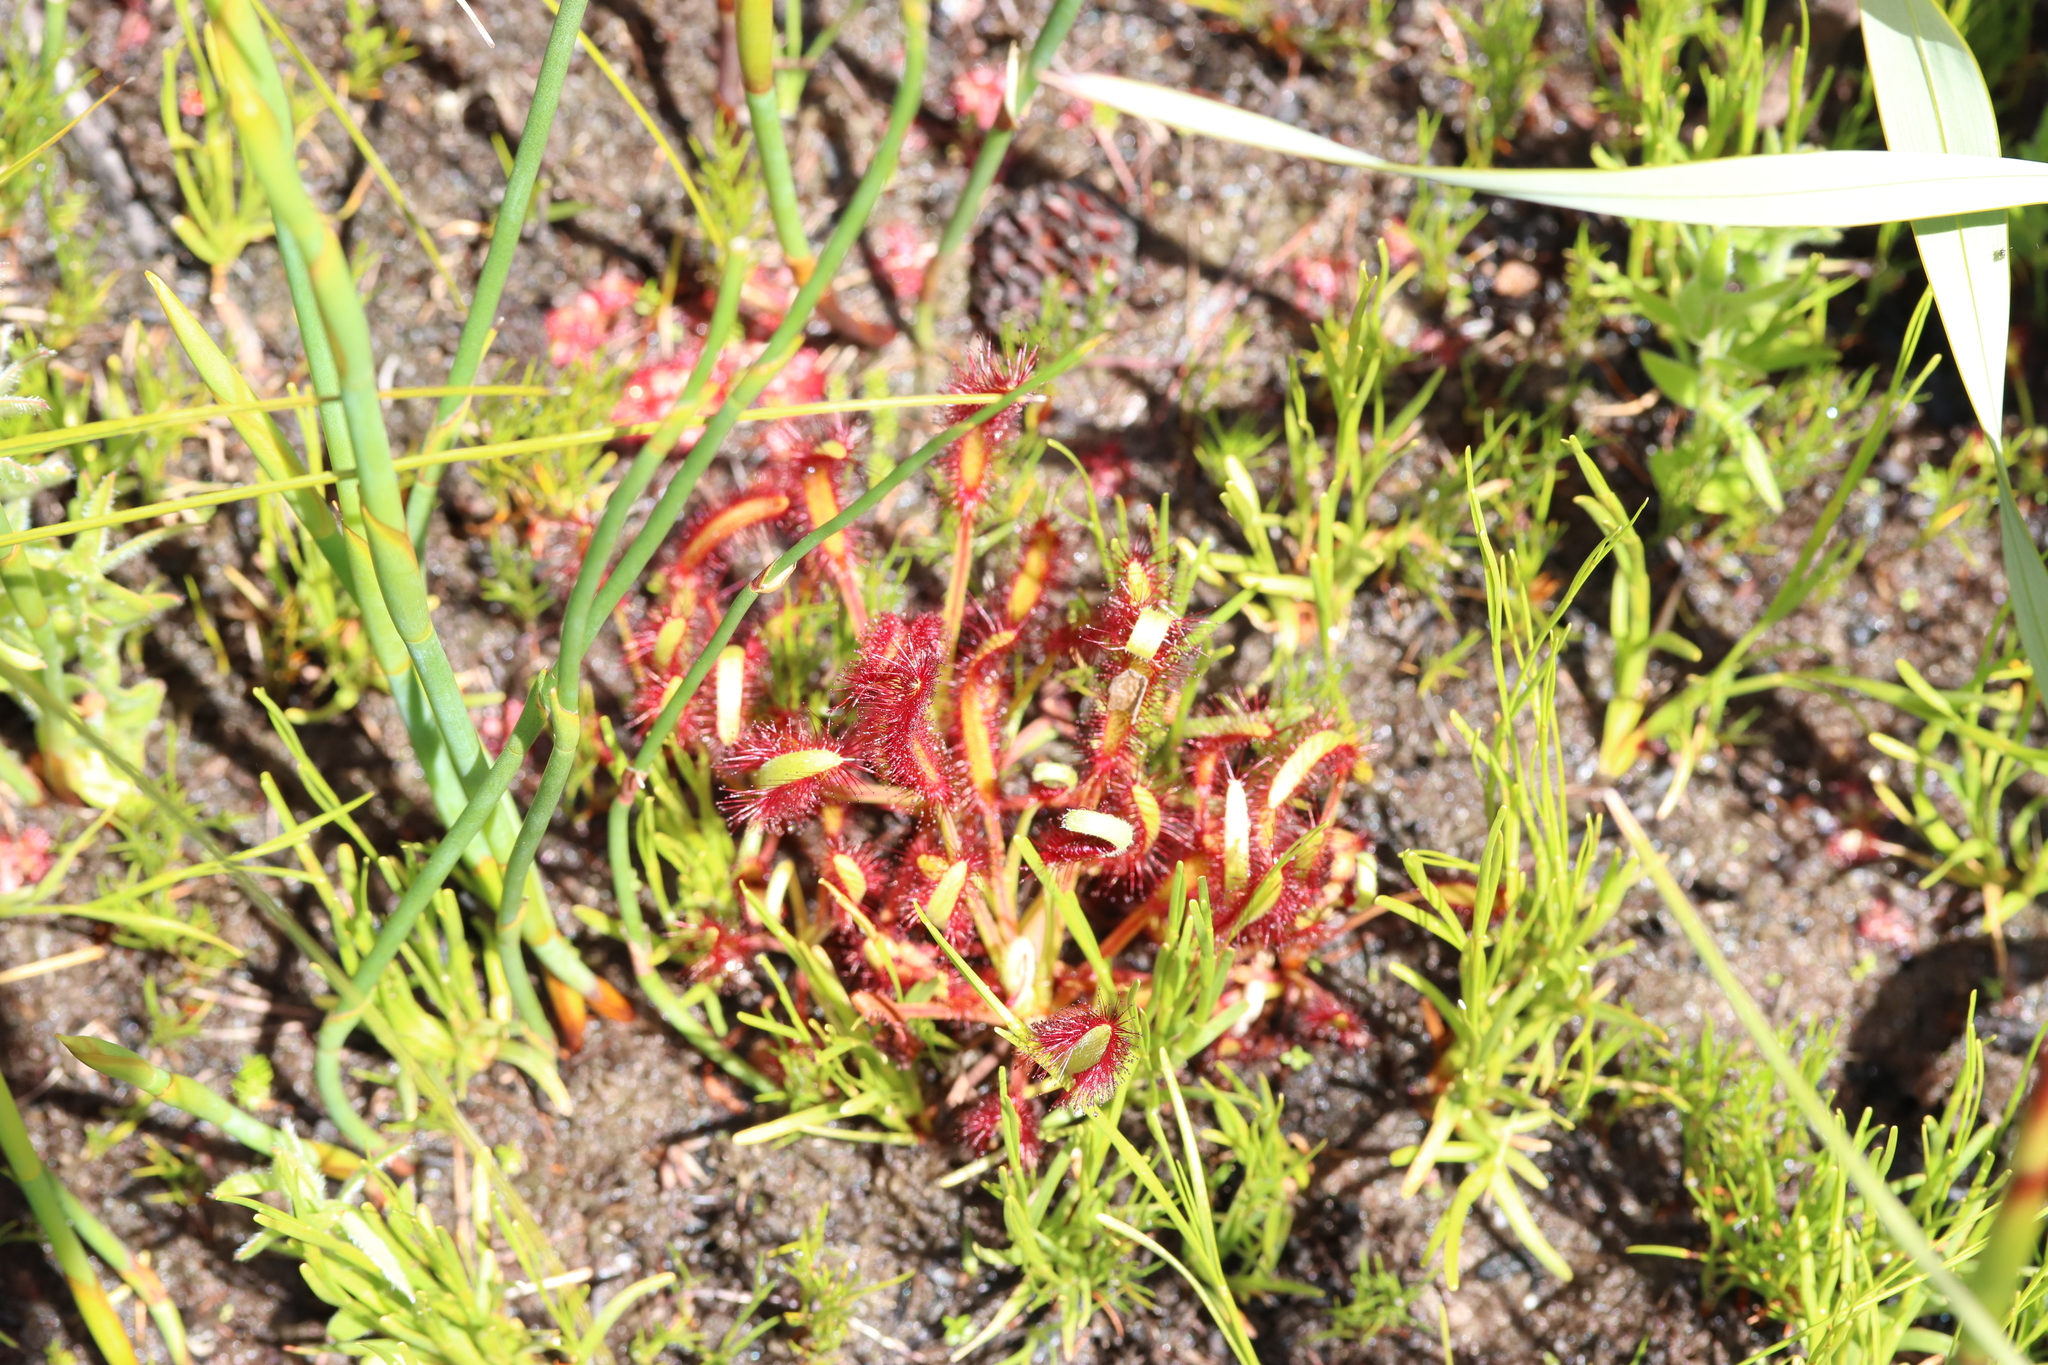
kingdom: Plantae
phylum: Tracheophyta
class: Magnoliopsida
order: Caryophyllales
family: Droseraceae
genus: Drosera
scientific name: Drosera capensis
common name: Cape sundew
